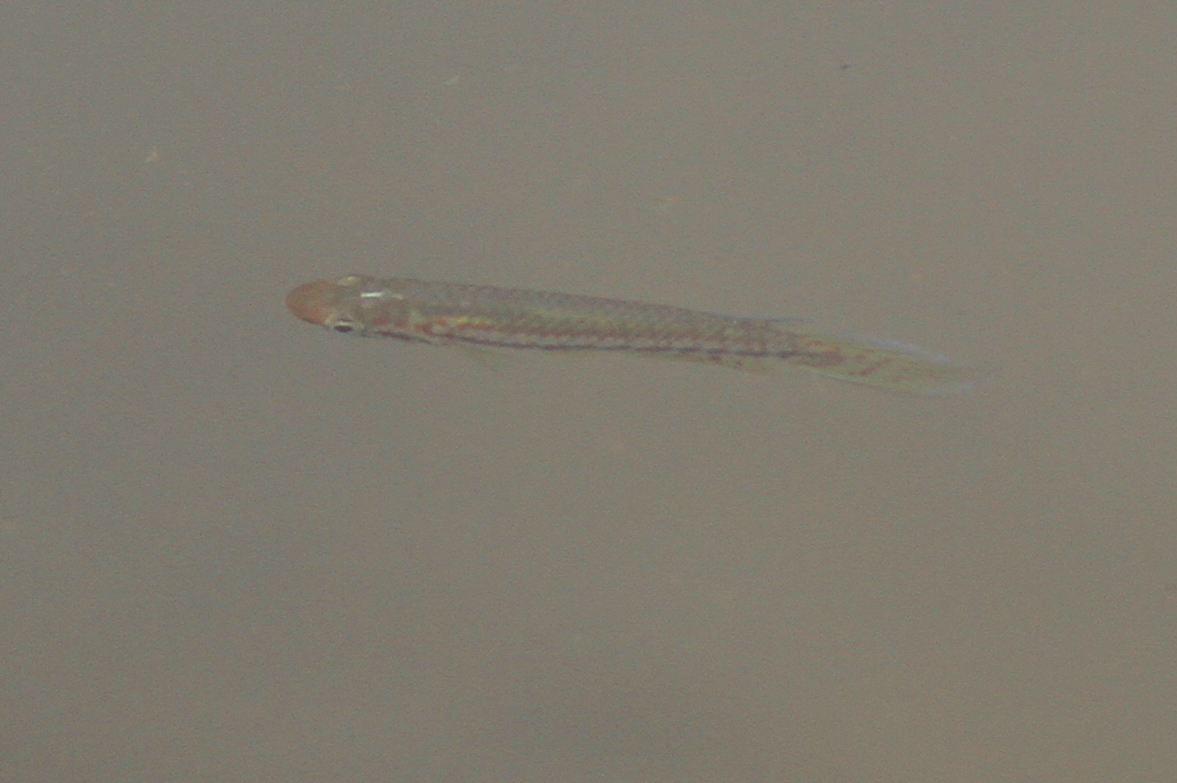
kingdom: Animalia
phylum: Chordata
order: Cyprinodontiformes
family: Nothobranchiidae
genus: Epiplatys
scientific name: Epiplatys bifasciatus
